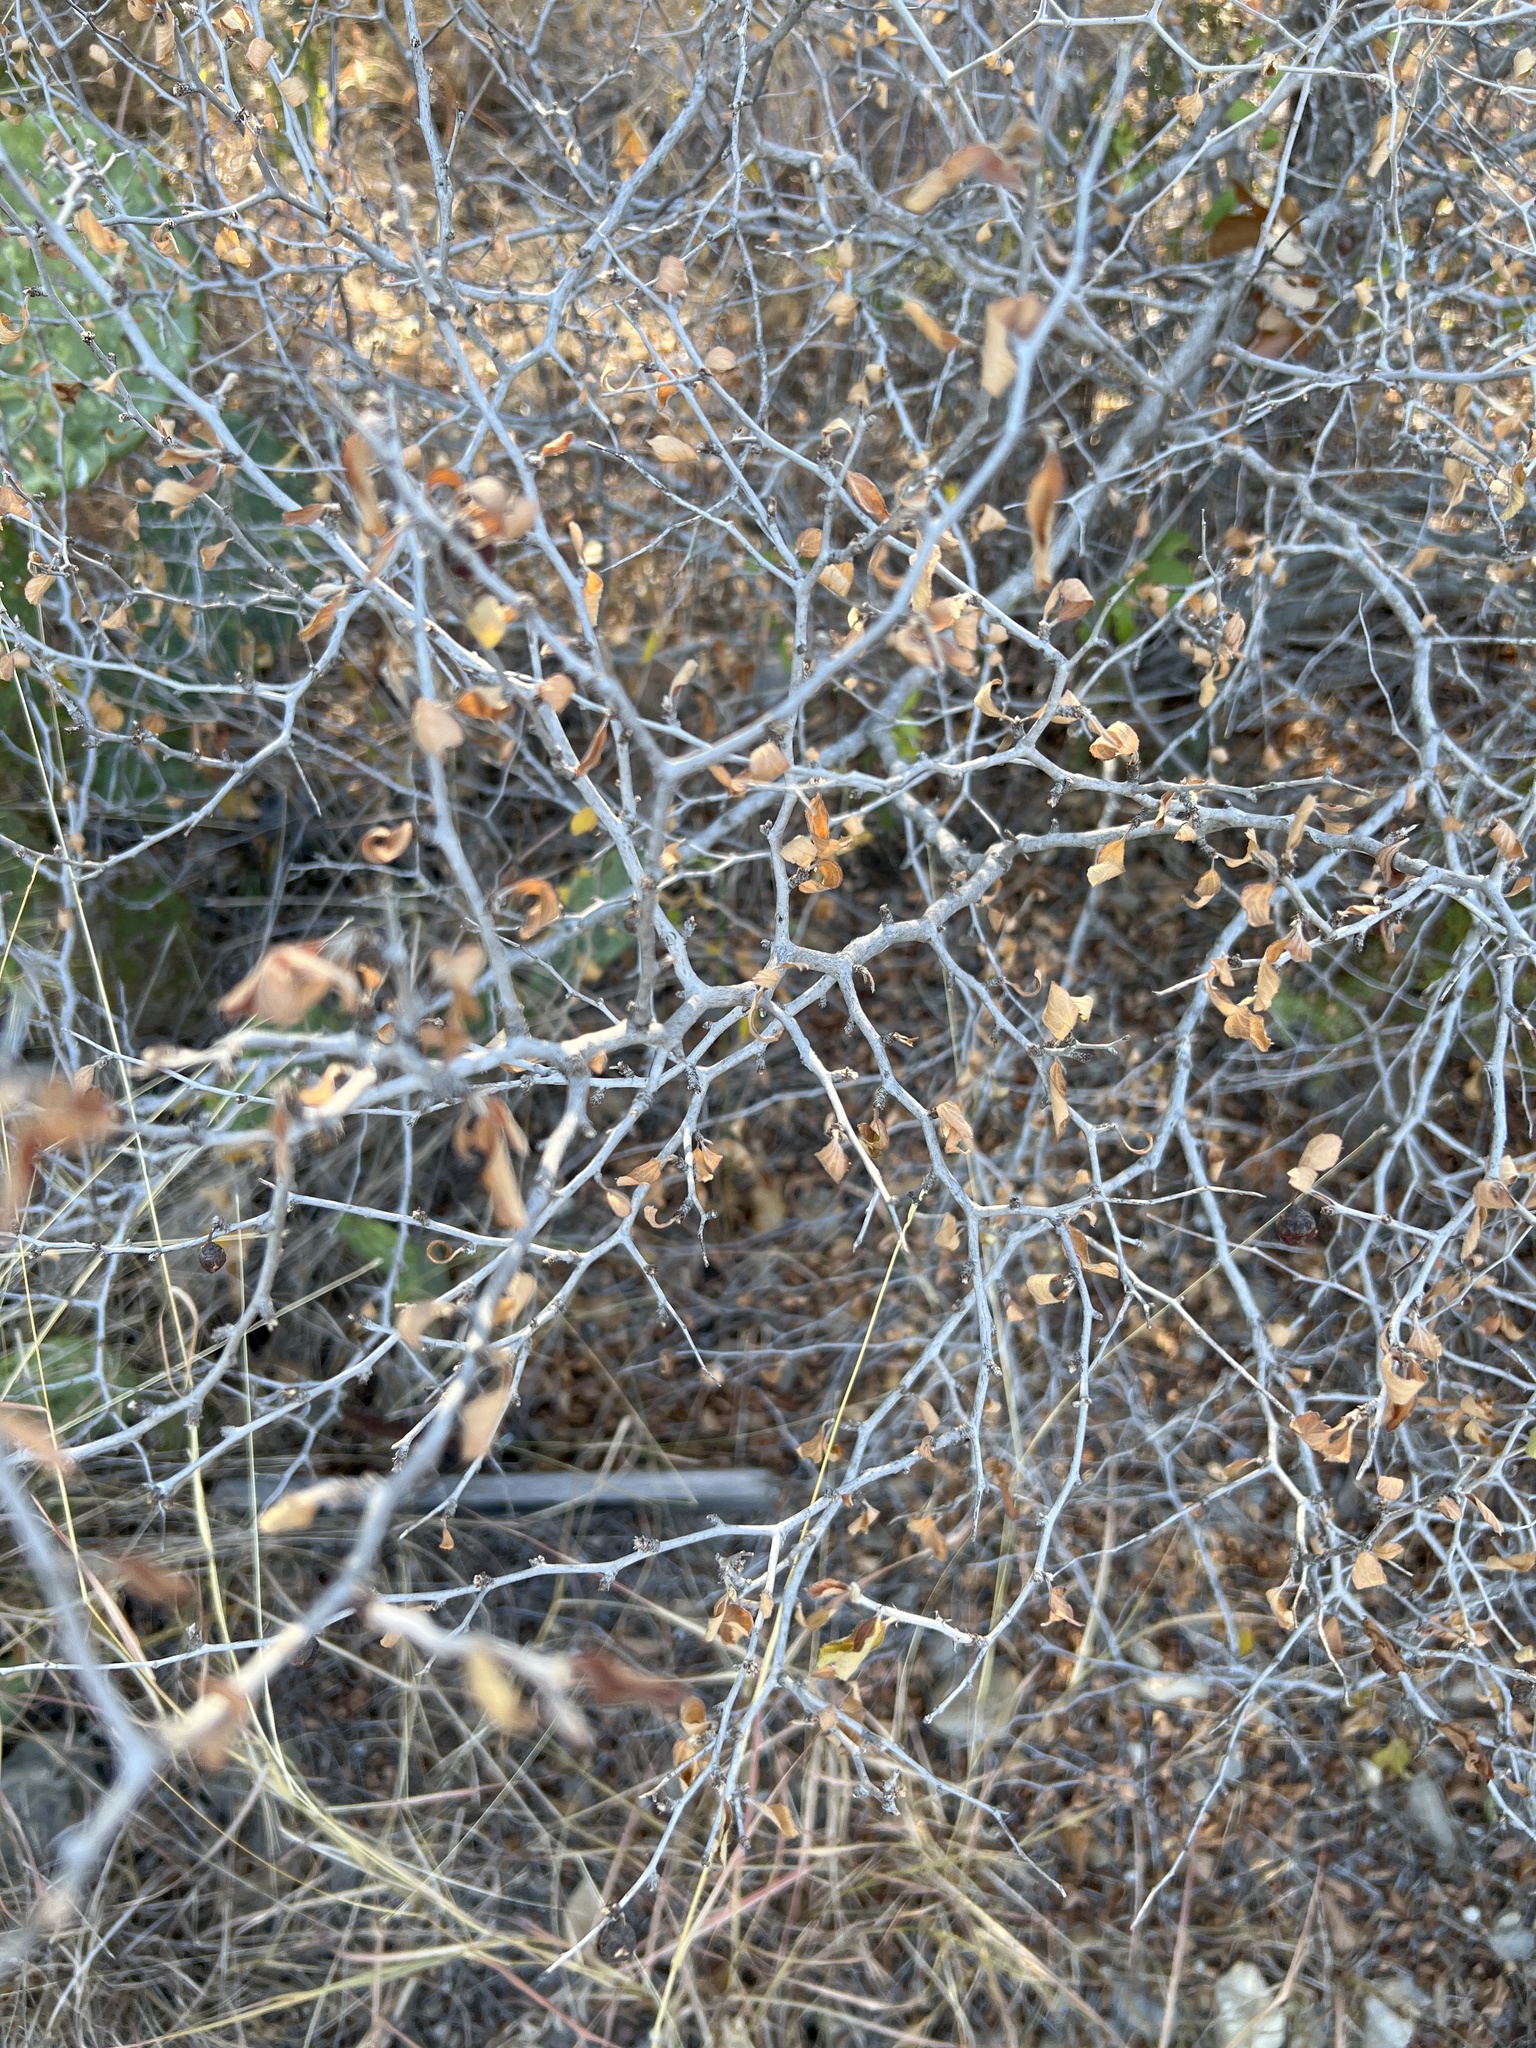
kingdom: Plantae
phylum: Tracheophyta
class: Magnoliopsida
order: Rosales
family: Rhamnaceae
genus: Colubrina
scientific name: Colubrina texensis
